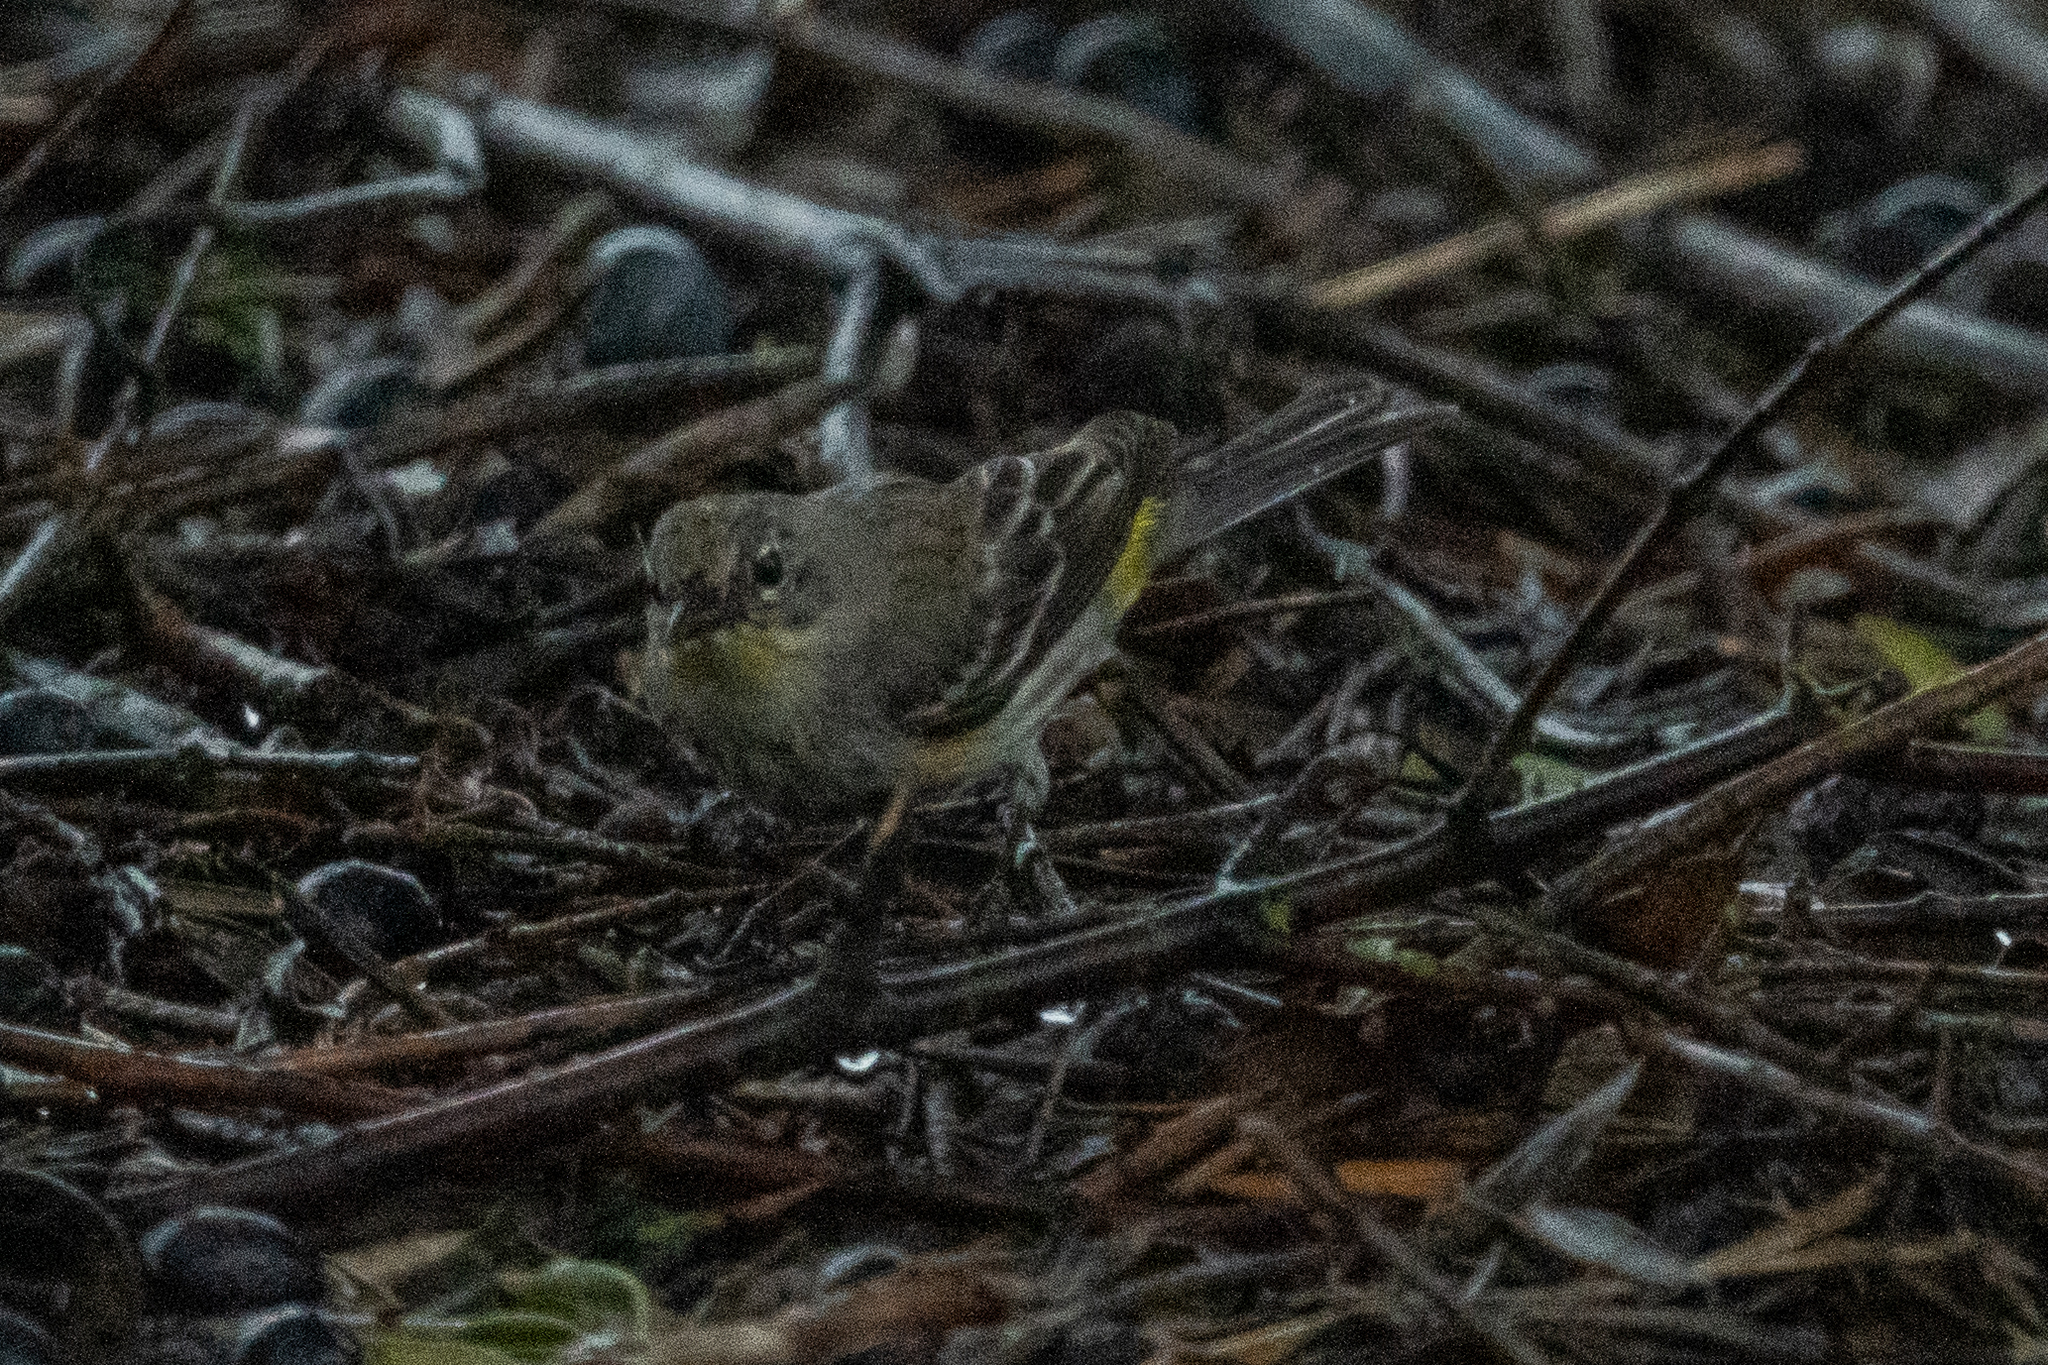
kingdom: Animalia
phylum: Chordata
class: Aves
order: Passeriformes
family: Parulidae
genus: Setophaga
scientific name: Setophaga coronata
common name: Myrtle warbler
